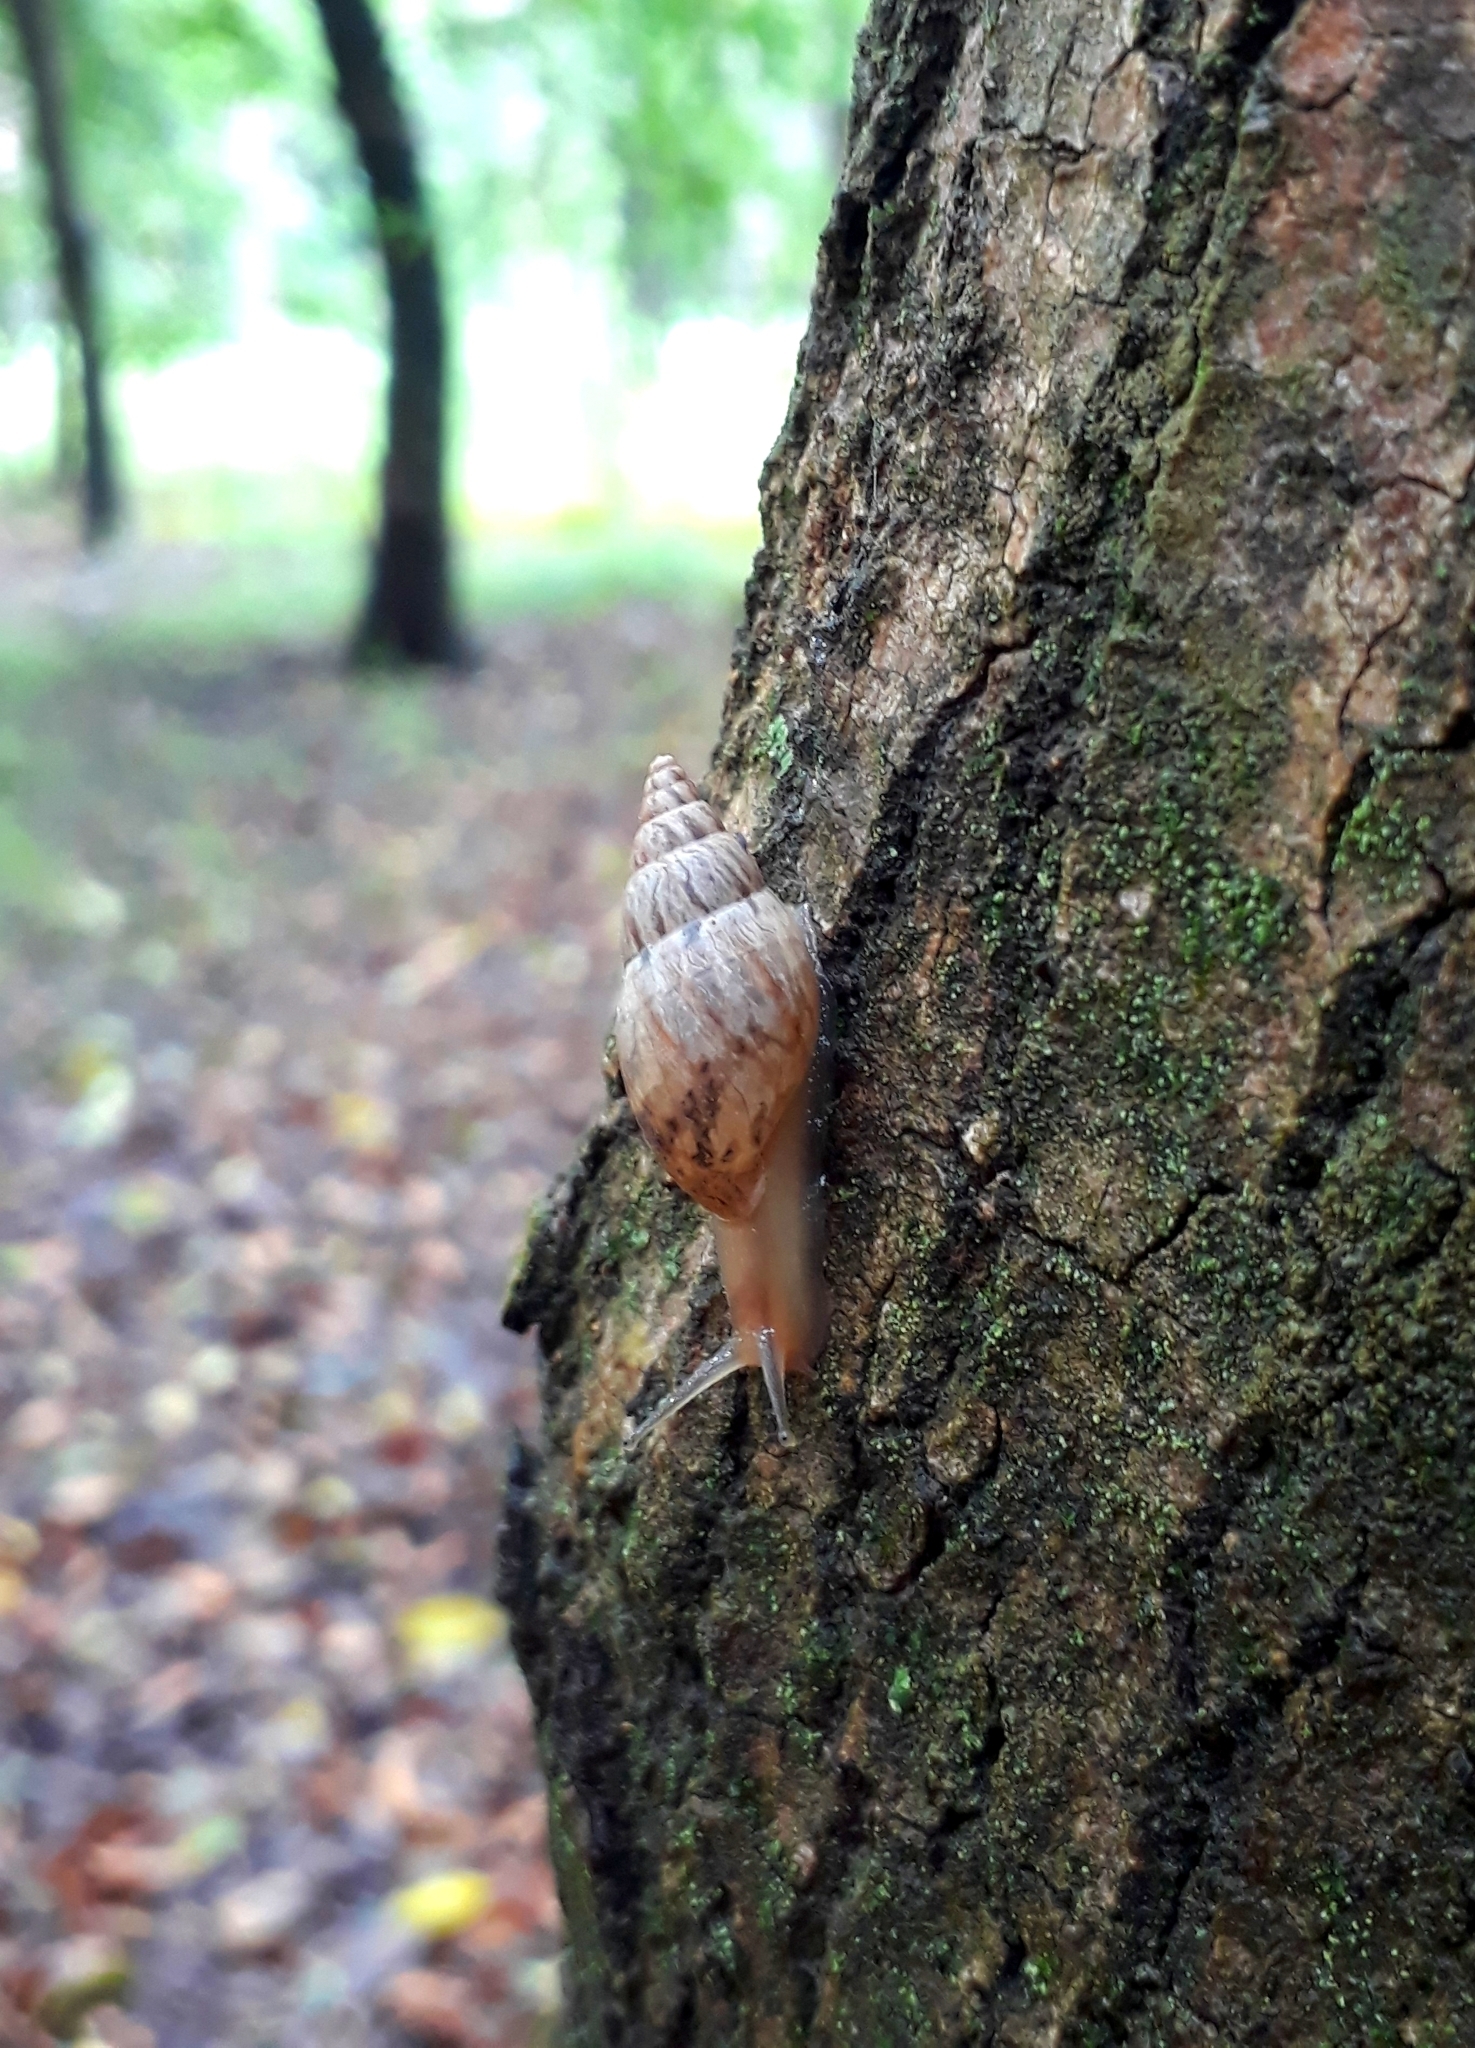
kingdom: Animalia
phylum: Mollusca
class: Gastropoda
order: Stylommatophora
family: Bulimulidae
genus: Bulimulus
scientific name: Bulimulus bonariensis
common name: Snail
